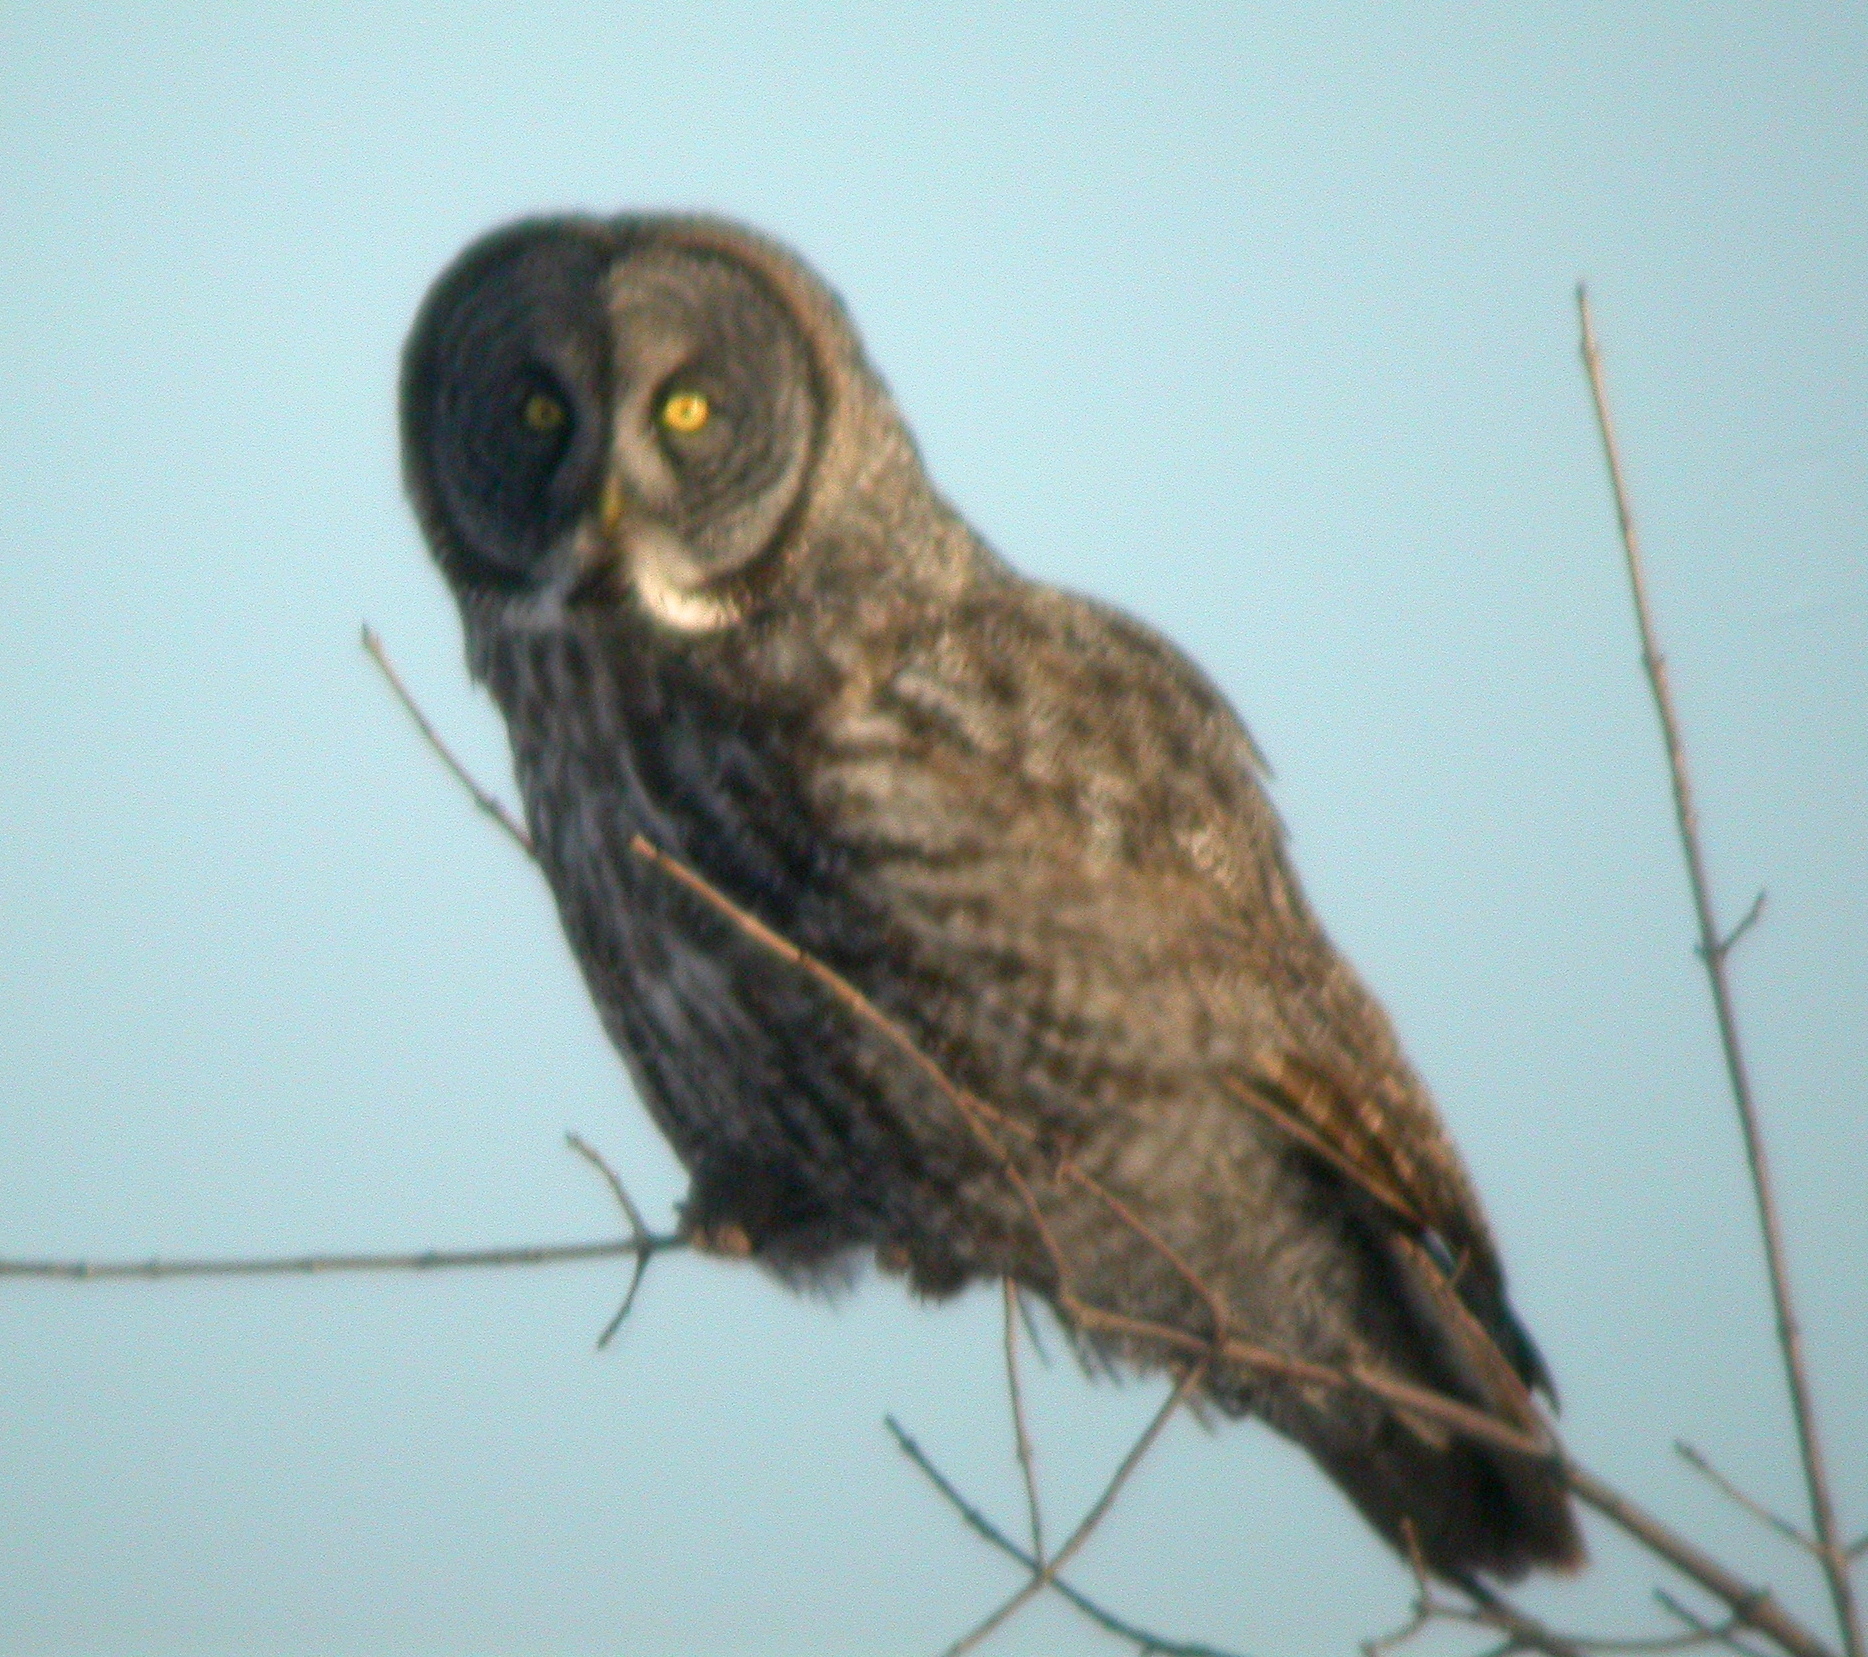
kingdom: Animalia
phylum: Chordata
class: Aves
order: Strigiformes
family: Strigidae
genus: Strix
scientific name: Strix nebulosa
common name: Great grey owl
